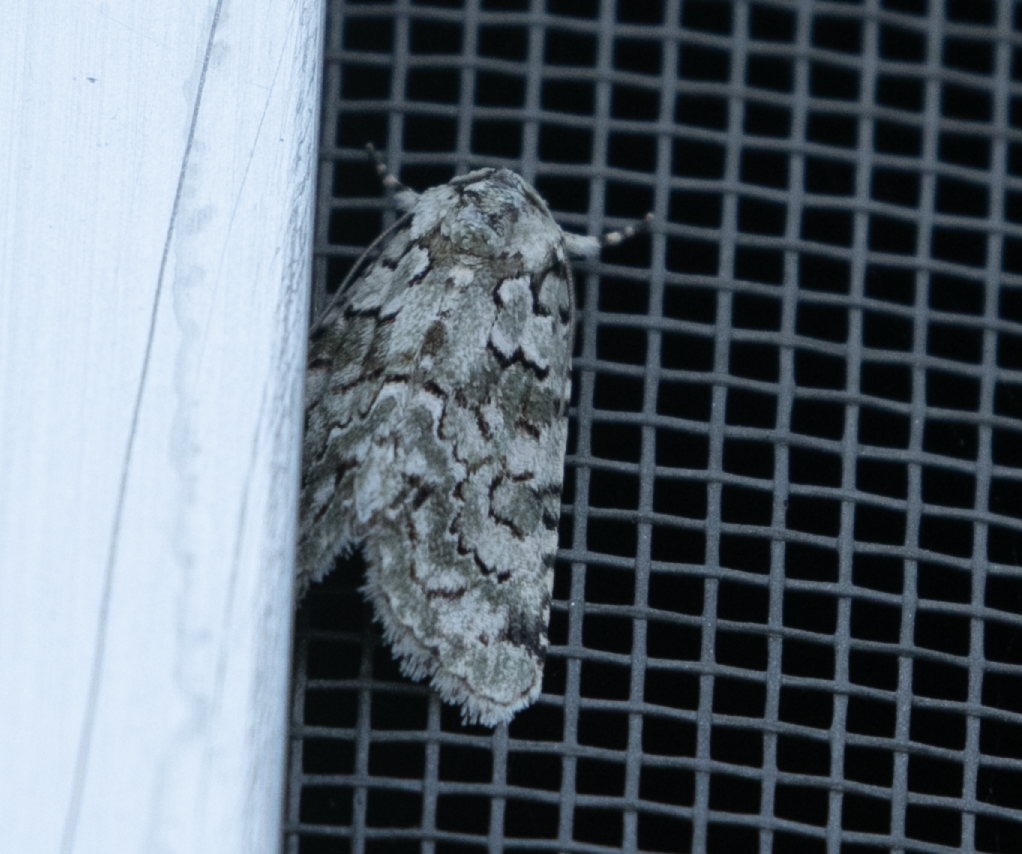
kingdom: Animalia
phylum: Arthropoda
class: Insecta
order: Lepidoptera
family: Noctuidae
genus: Nyctobrya
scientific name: Nyctobrya muralis
